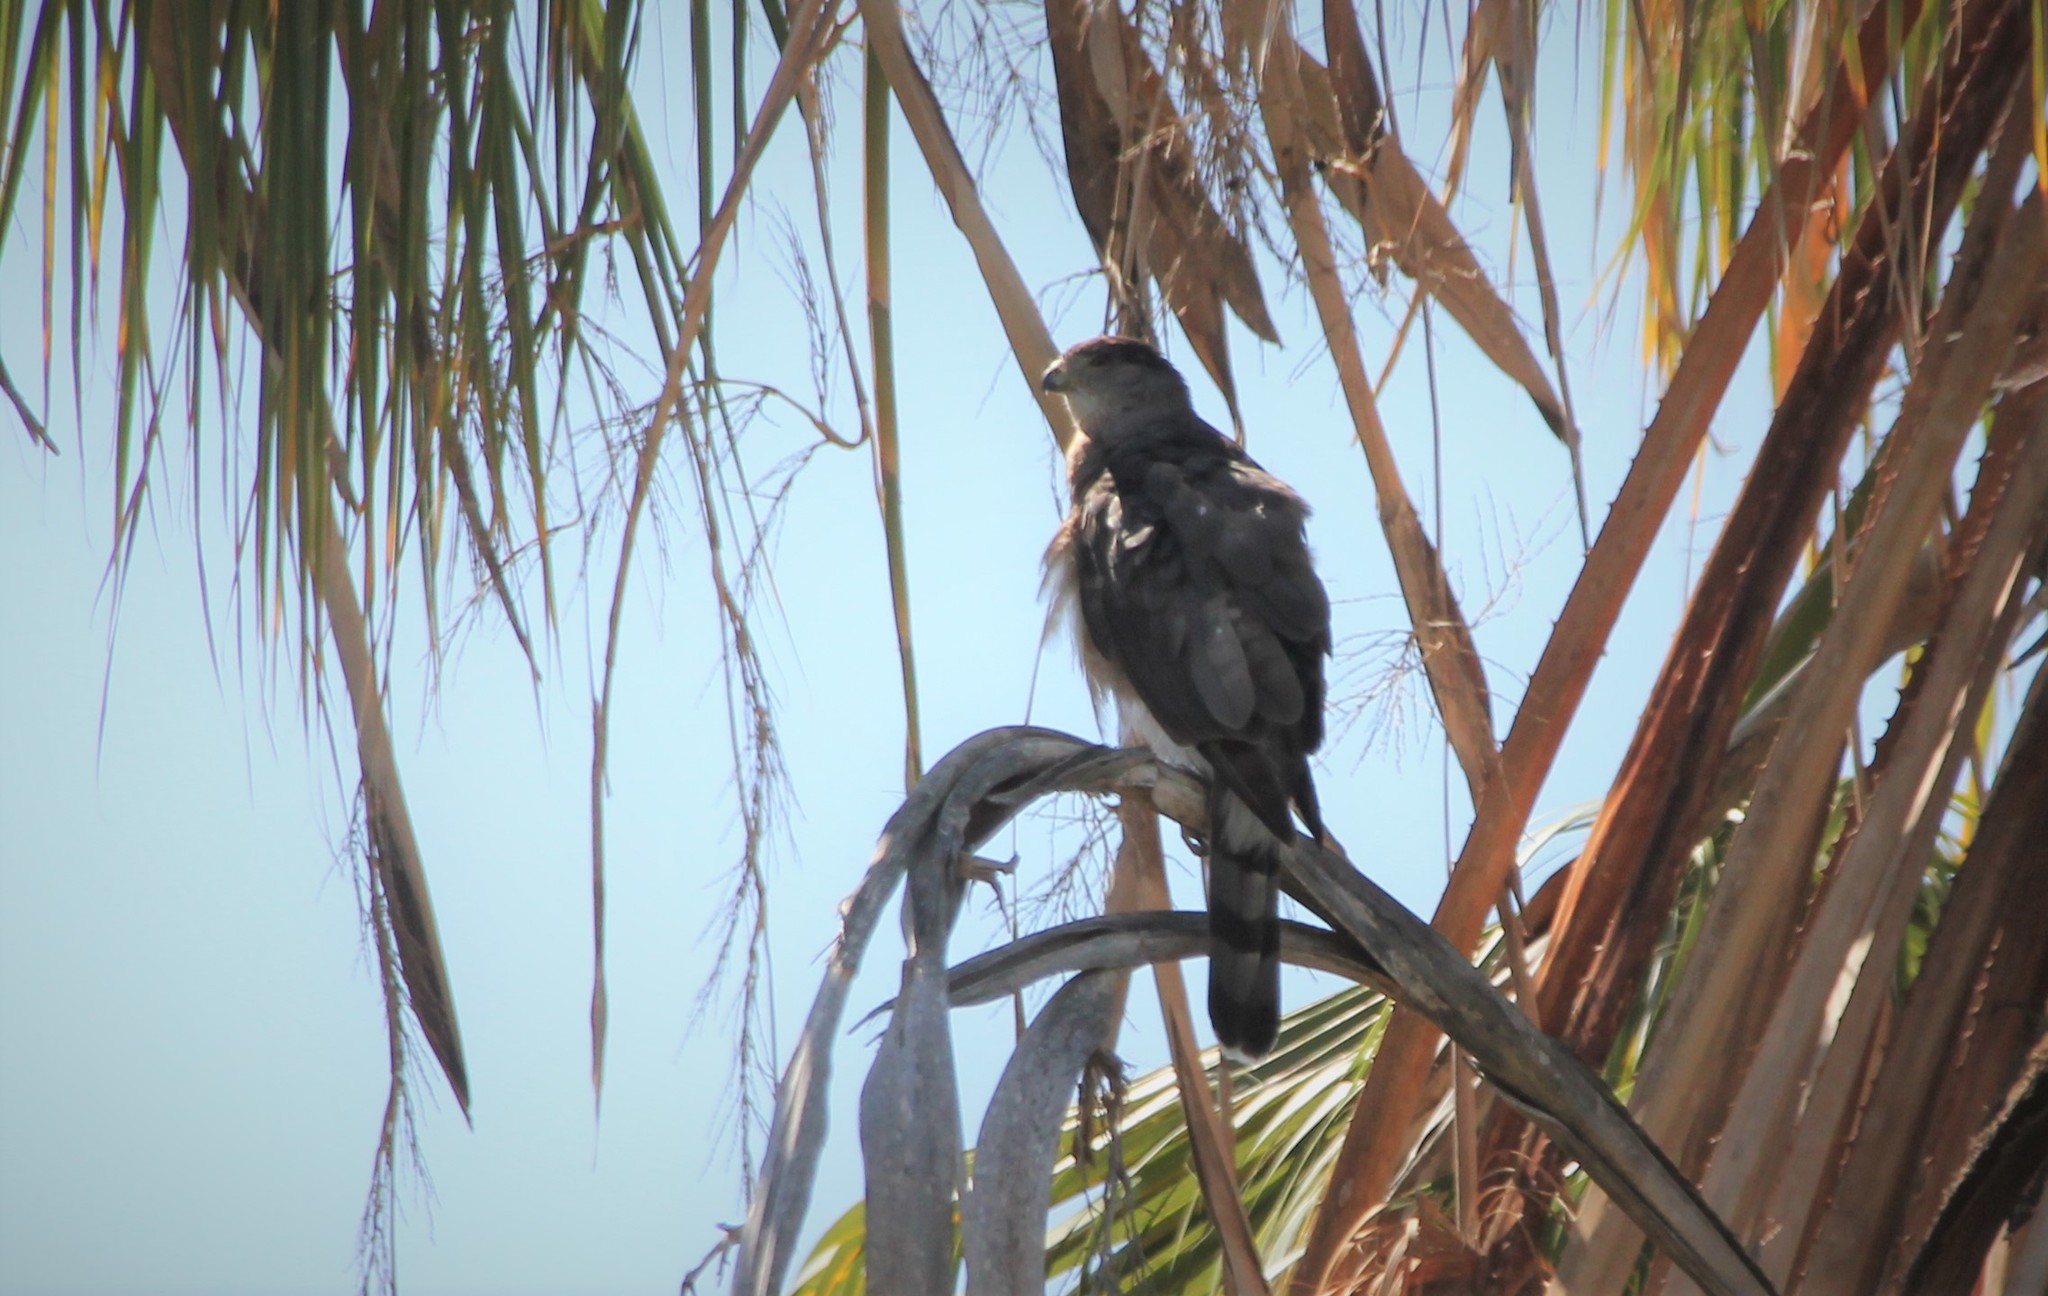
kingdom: Animalia
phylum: Chordata
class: Aves
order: Accipitriformes
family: Accipitridae
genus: Accipiter
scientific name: Accipiter cooperii
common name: Cooper's hawk
